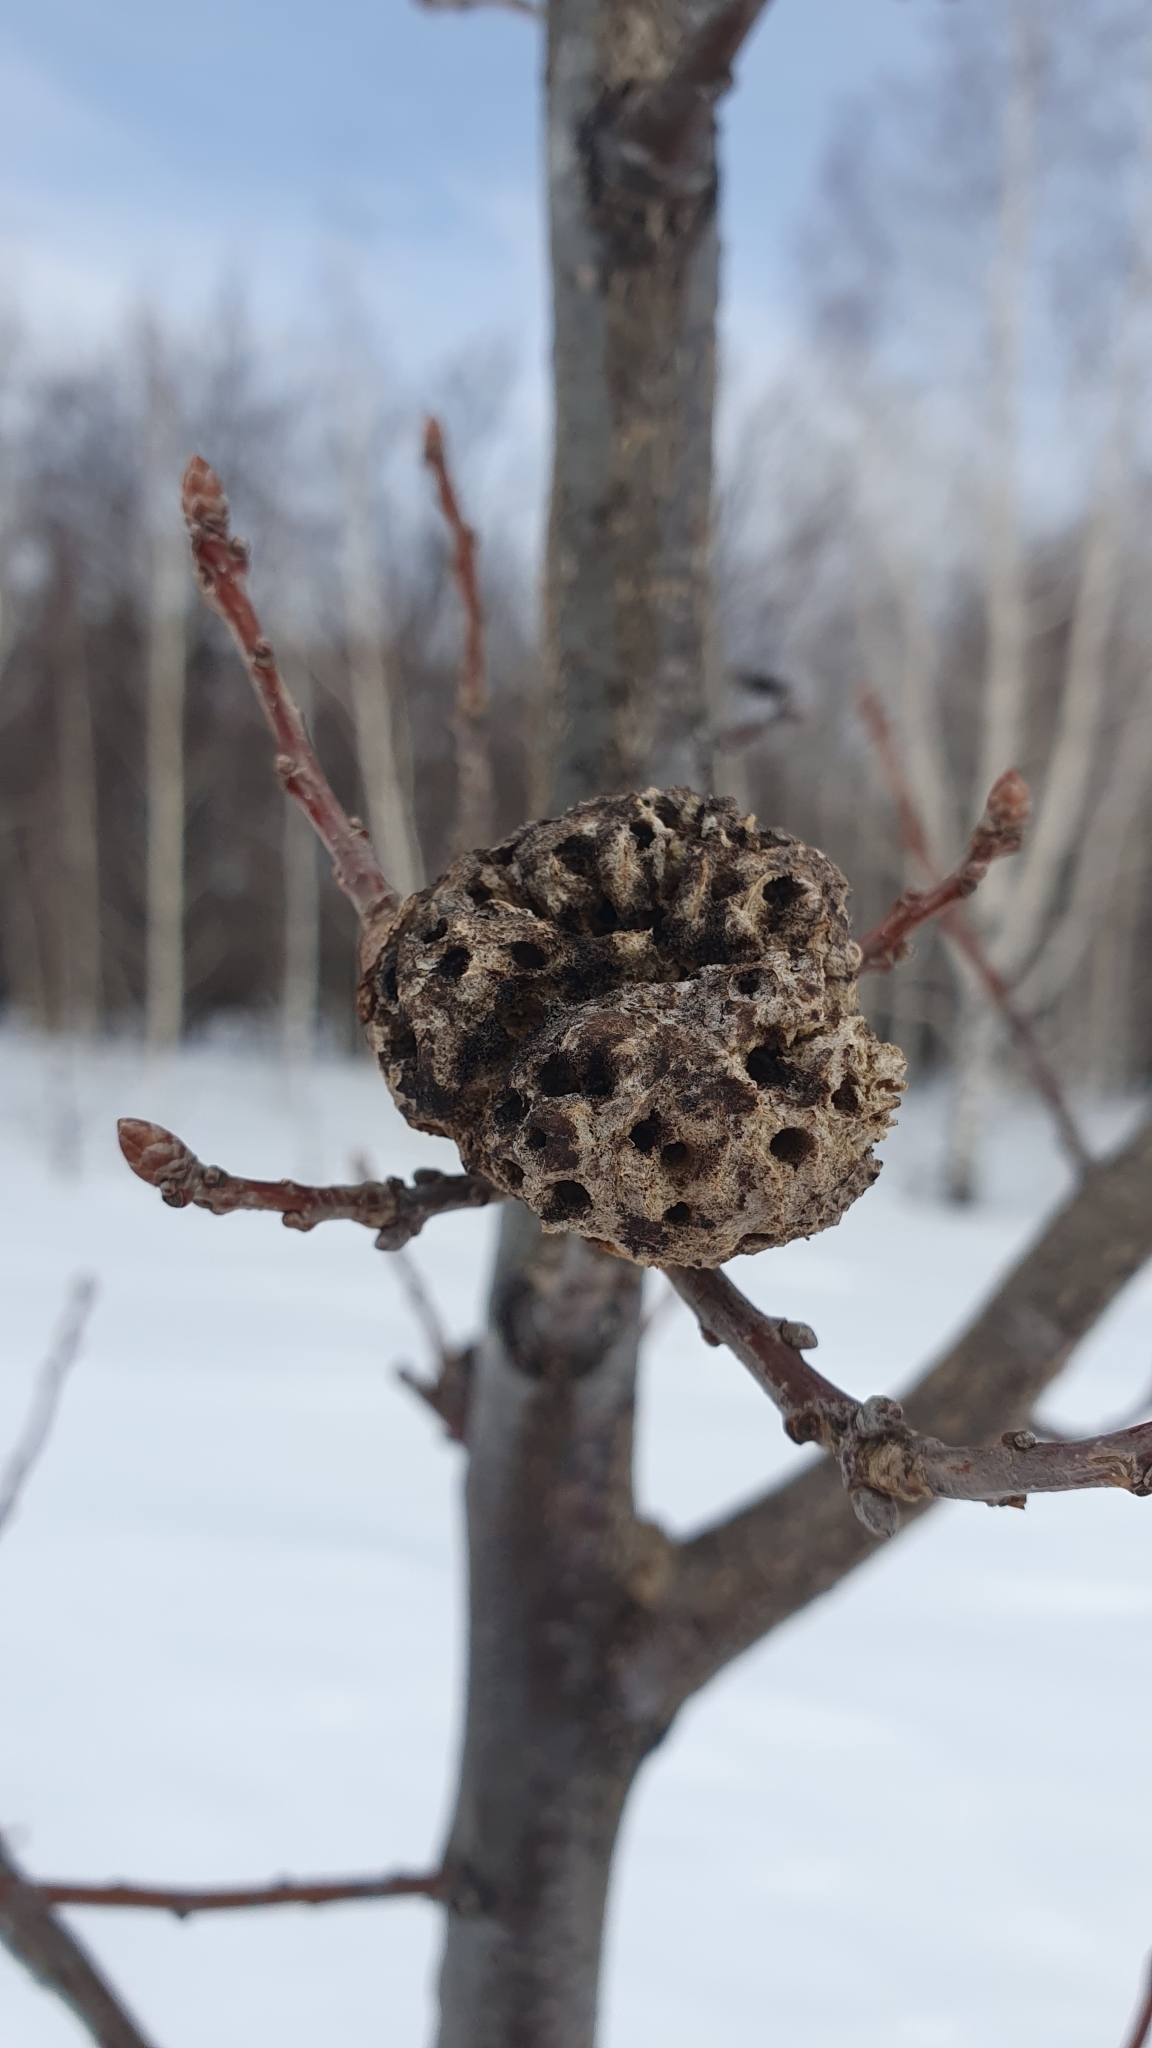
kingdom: Animalia
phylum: Arthropoda
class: Insecta
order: Hymenoptera
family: Cynipidae
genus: Biorhiza
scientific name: Biorhiza pallida
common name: Oak apple
